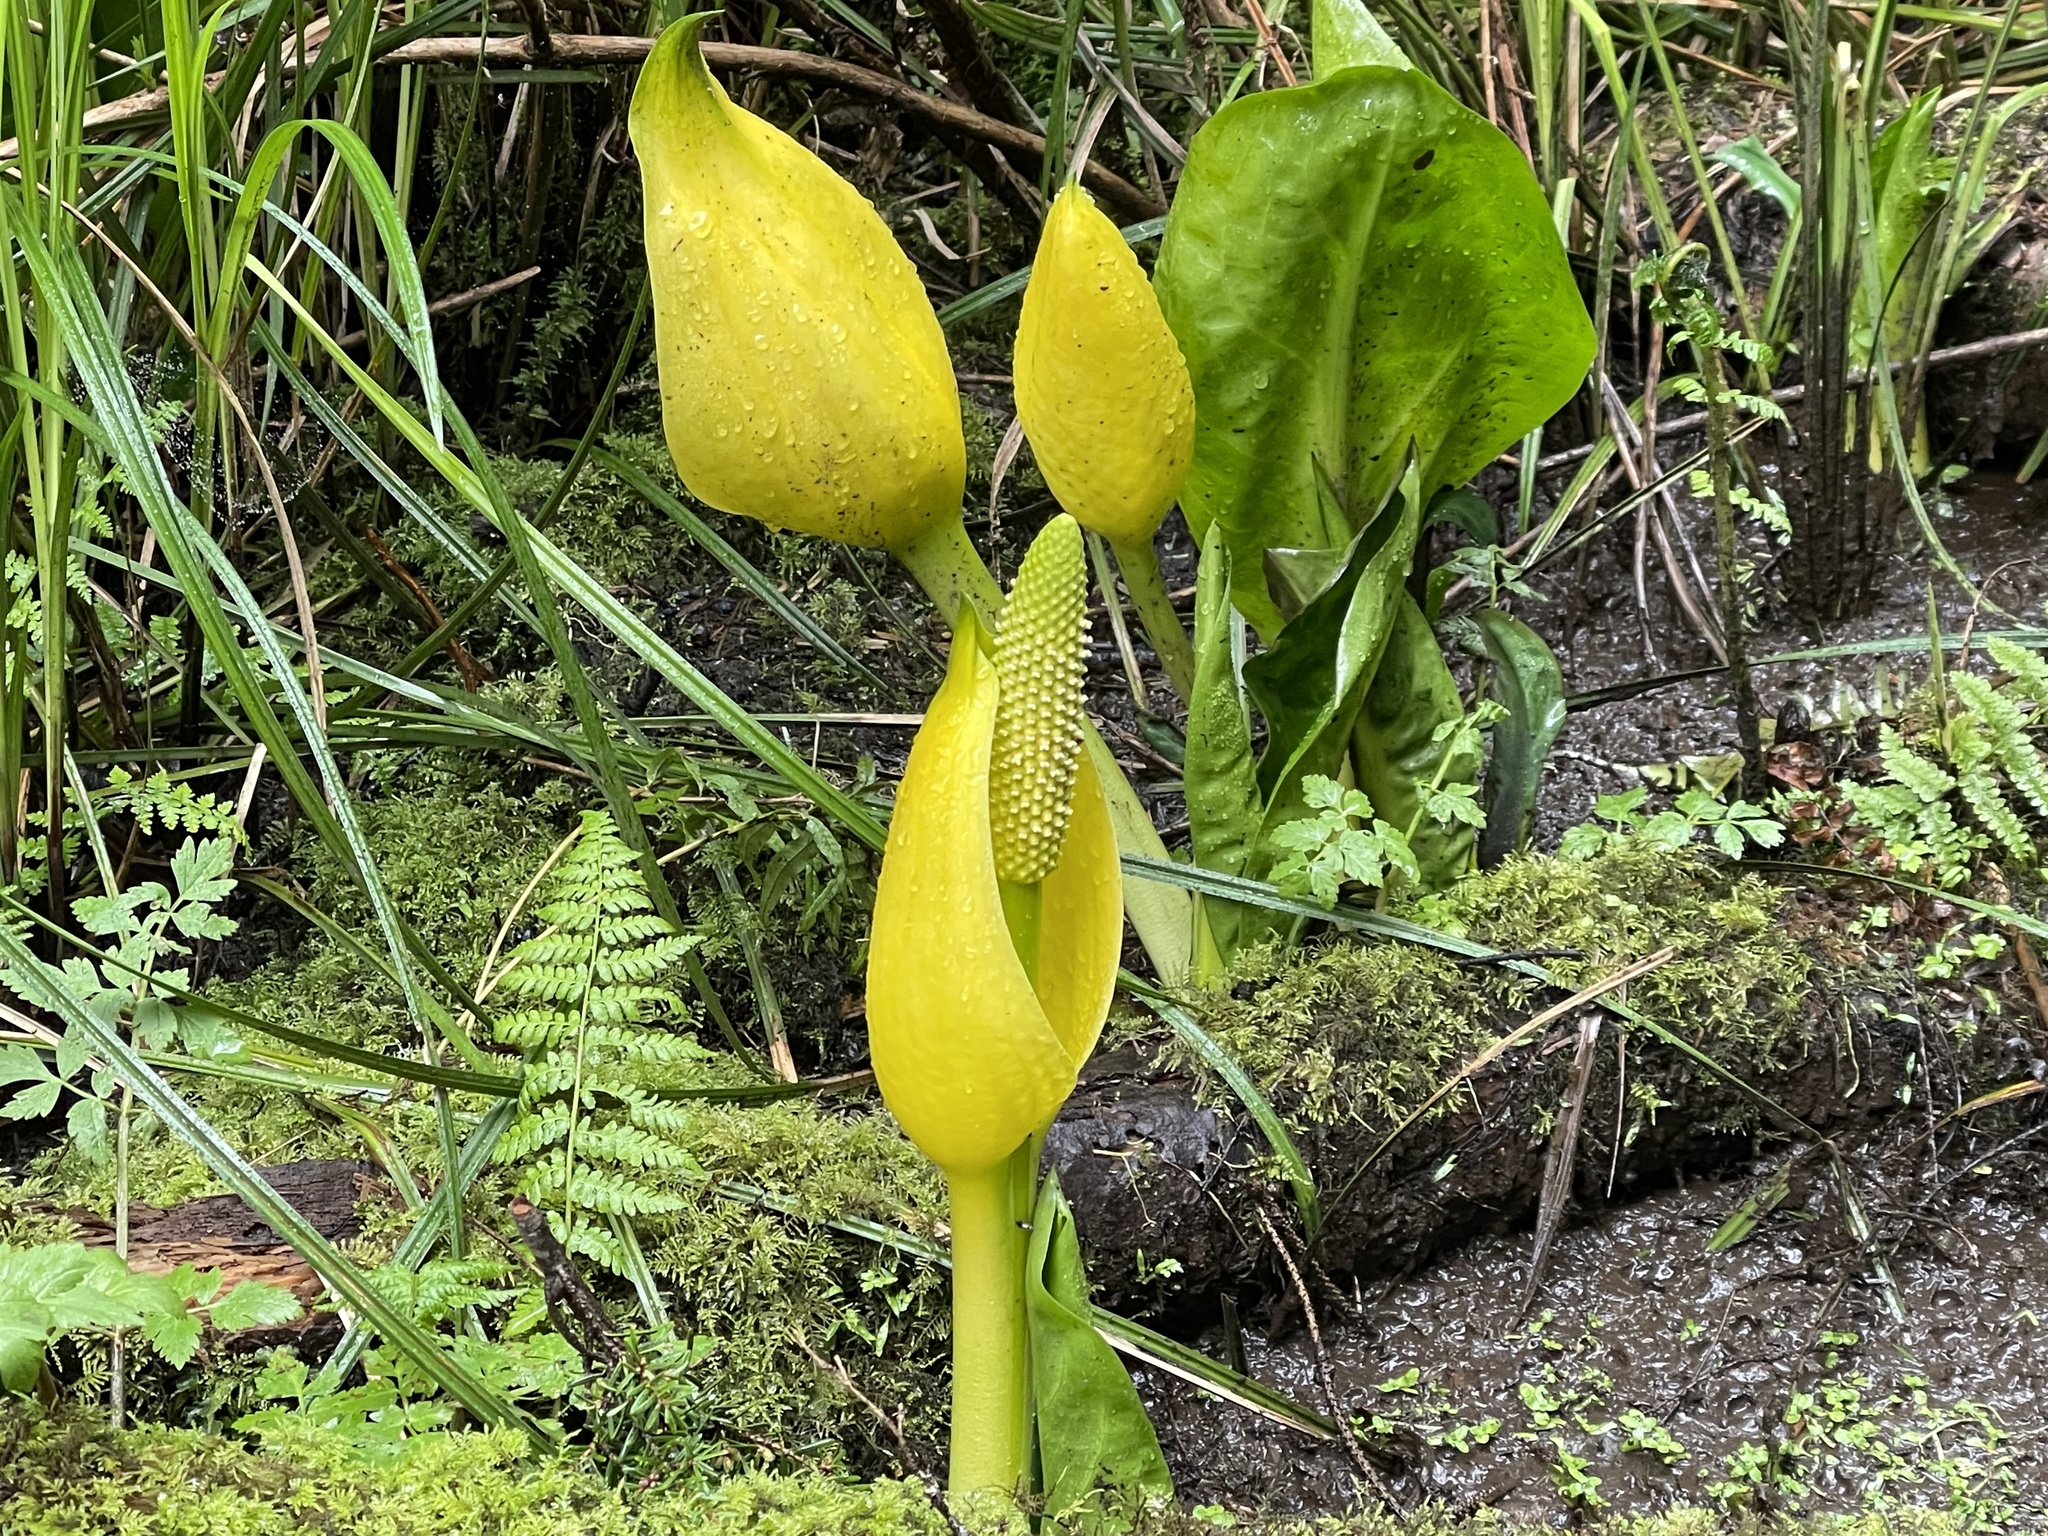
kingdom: Plantae
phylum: Tracheophyta
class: Liliopsida
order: Alismatales
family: Araceae
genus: Lysichiton
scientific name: Lysichiton americanus
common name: American skunk cabbage
